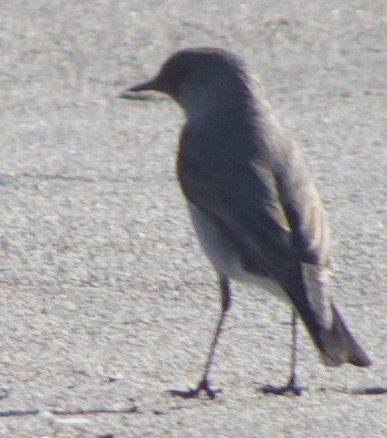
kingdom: Animalia
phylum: Chordata
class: Aves
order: Passeriformes
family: Tyrannidae
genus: Muscisaxicola
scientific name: Muscisaxicola maclovianus
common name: Dark-faced ground tyrant
